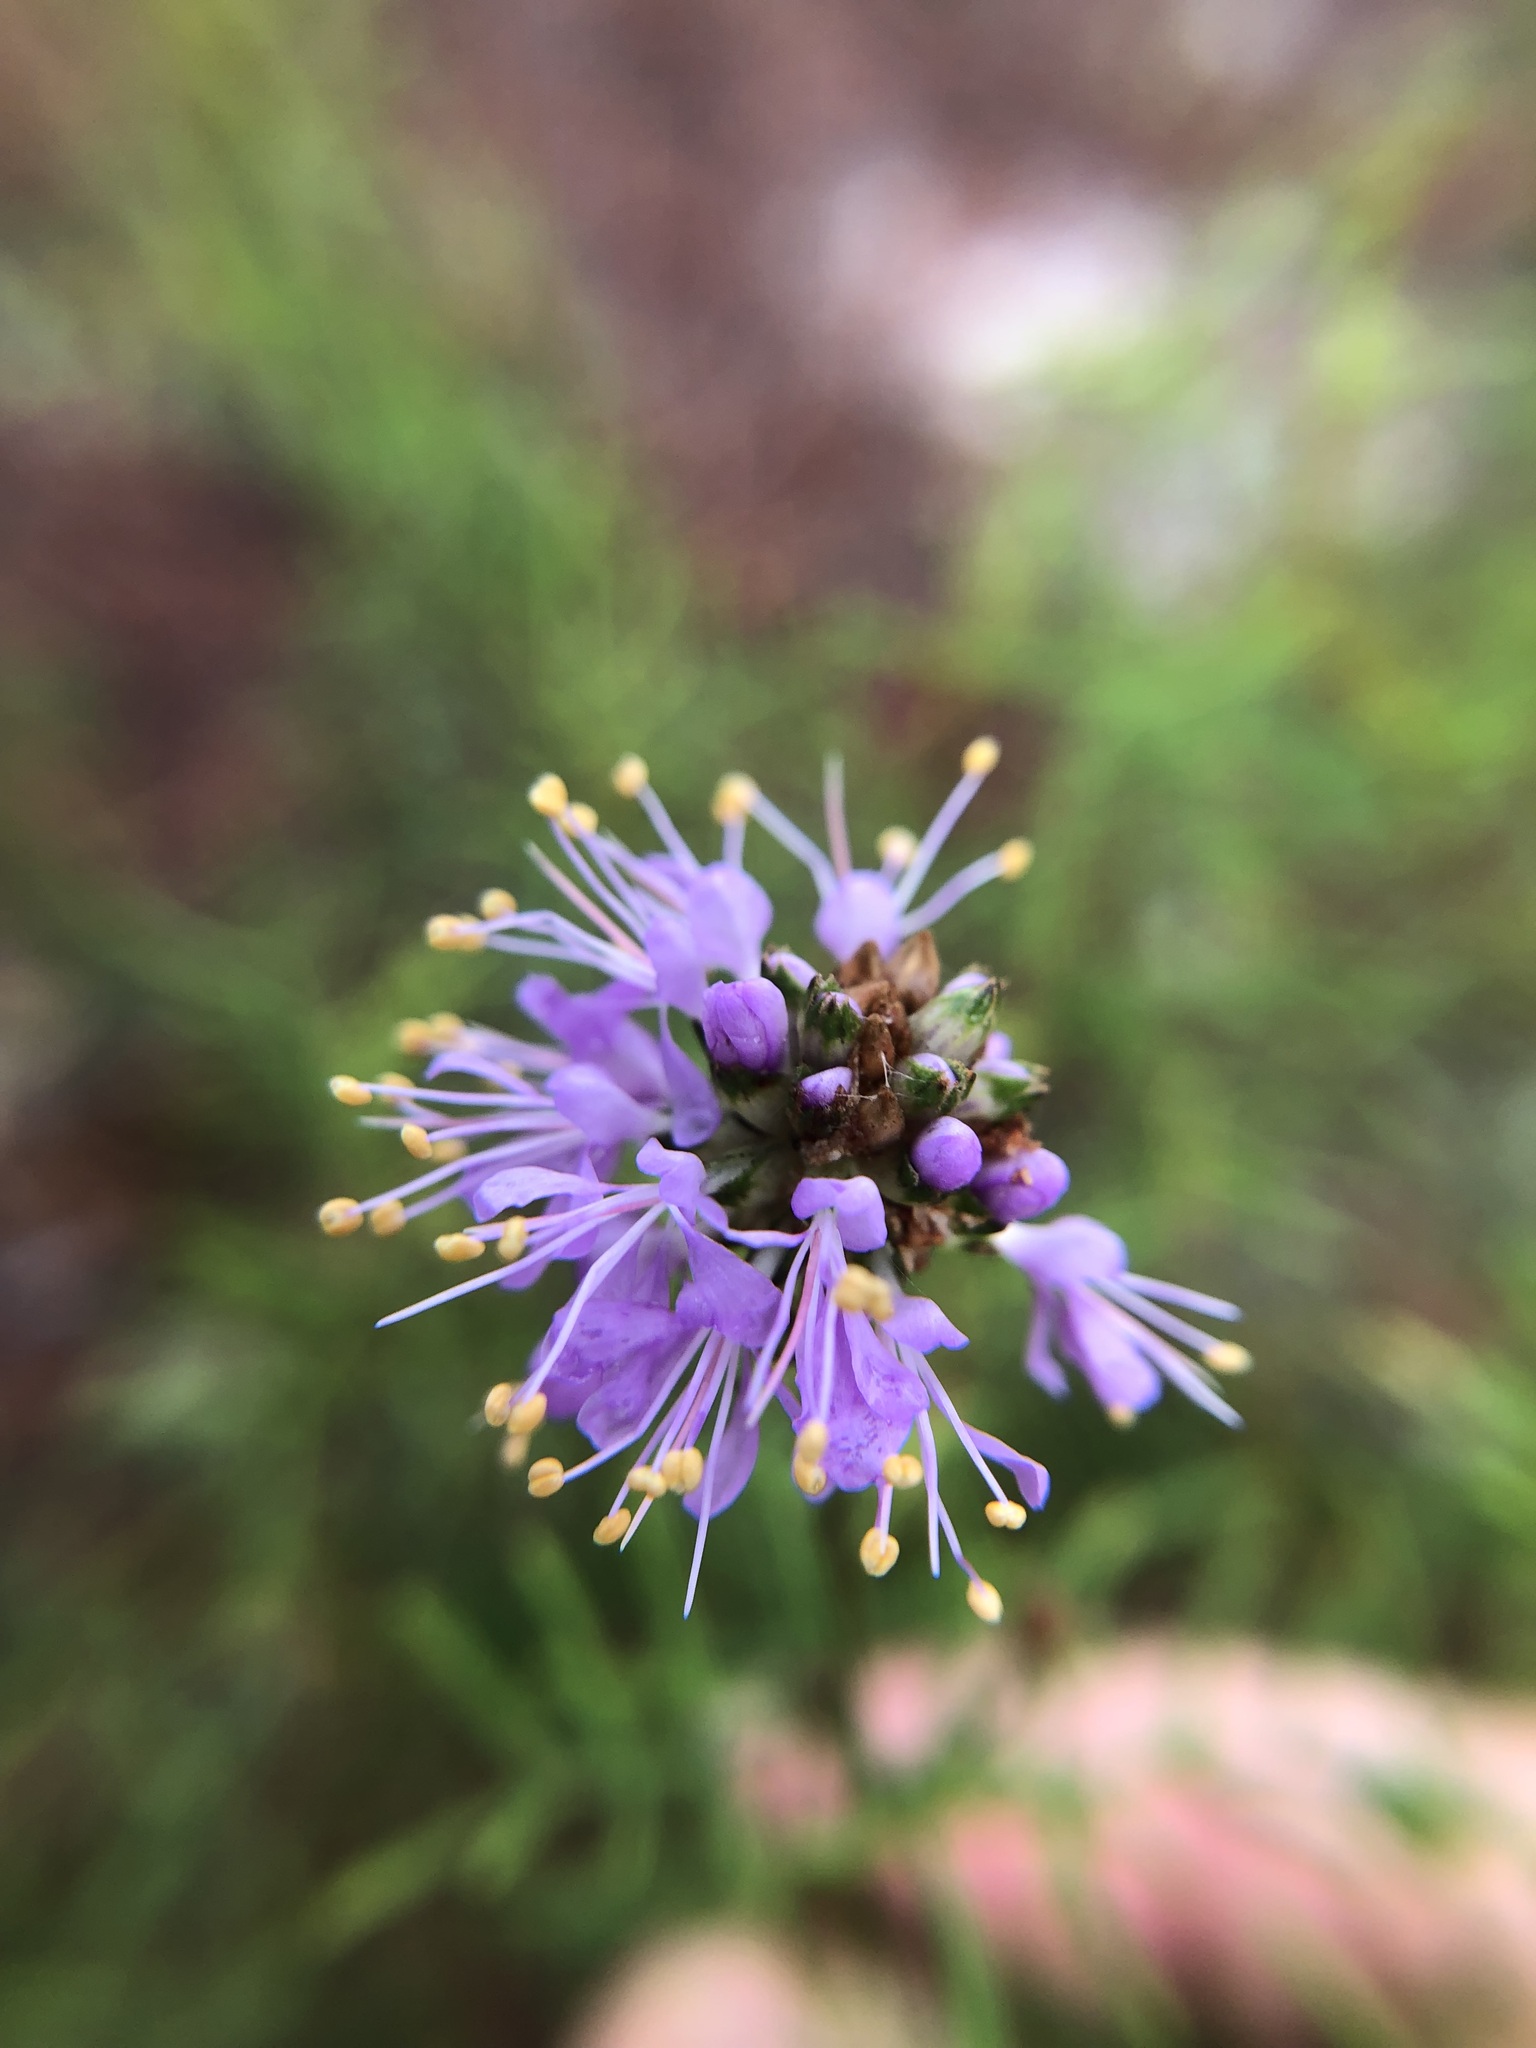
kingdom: Plantae
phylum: Tracheophyta
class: Magnoliopsida
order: Fabales
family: Fabaceae
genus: Dalea
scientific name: Dalea feayi
